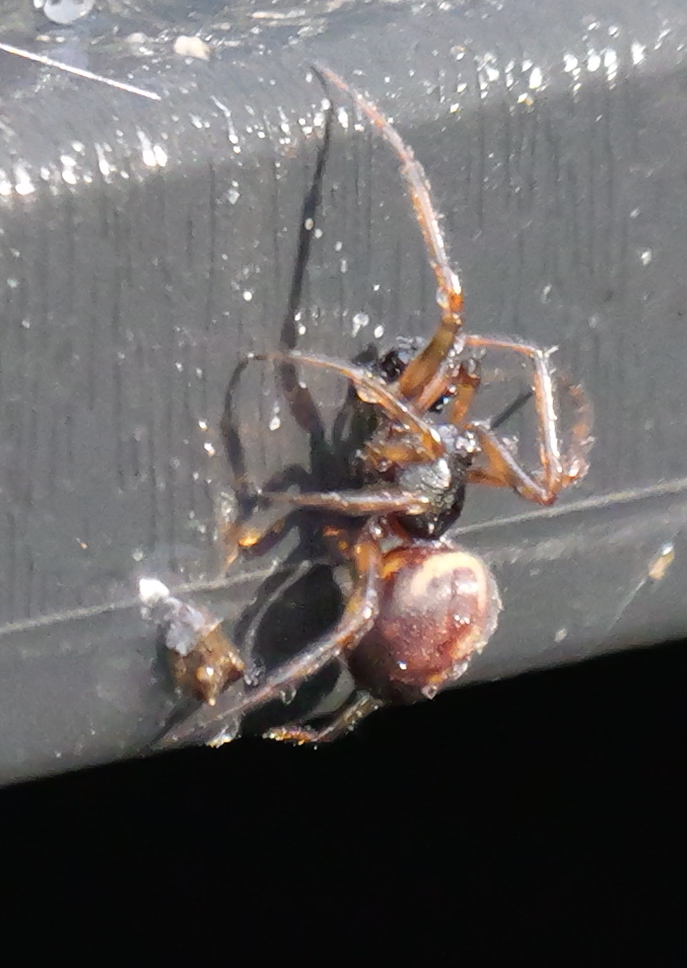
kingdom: Animalia
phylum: Arthropoda
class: Arachnida
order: Araneae
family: Theridiidae
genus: Steatoda
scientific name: Steatoda bipunctata
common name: False widow
